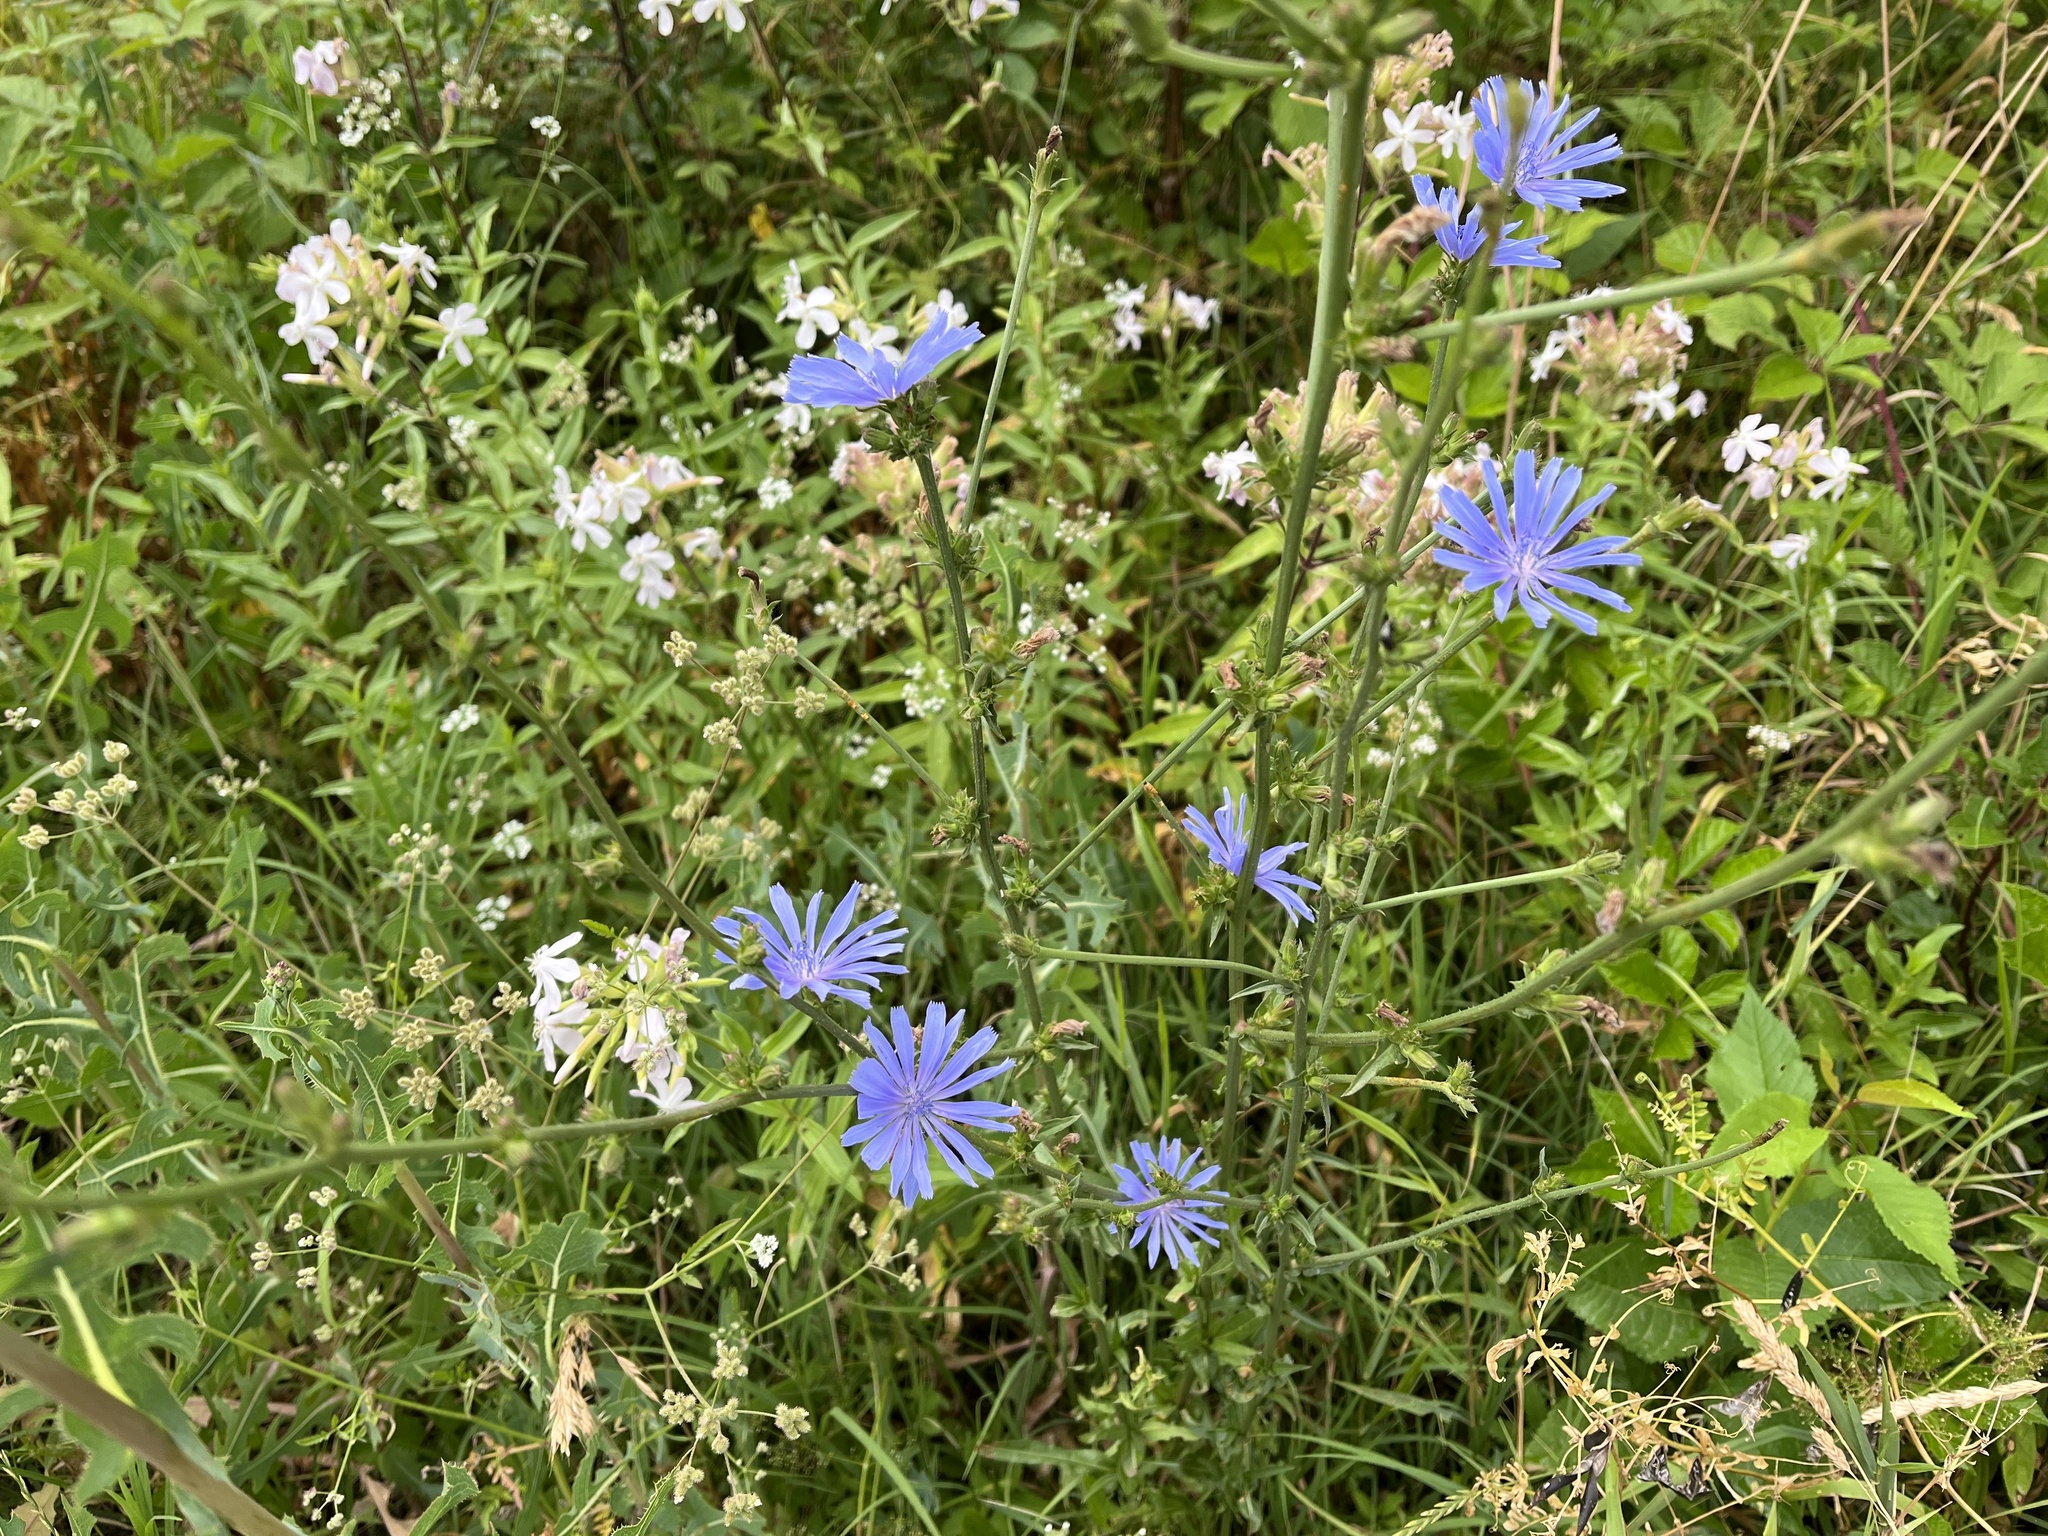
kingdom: Plantae
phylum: Tracheophyta
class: Magnoliopsida
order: Asterales
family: Asteraceae
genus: Cichorium
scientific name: Cichorium intybus
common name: Chicory
